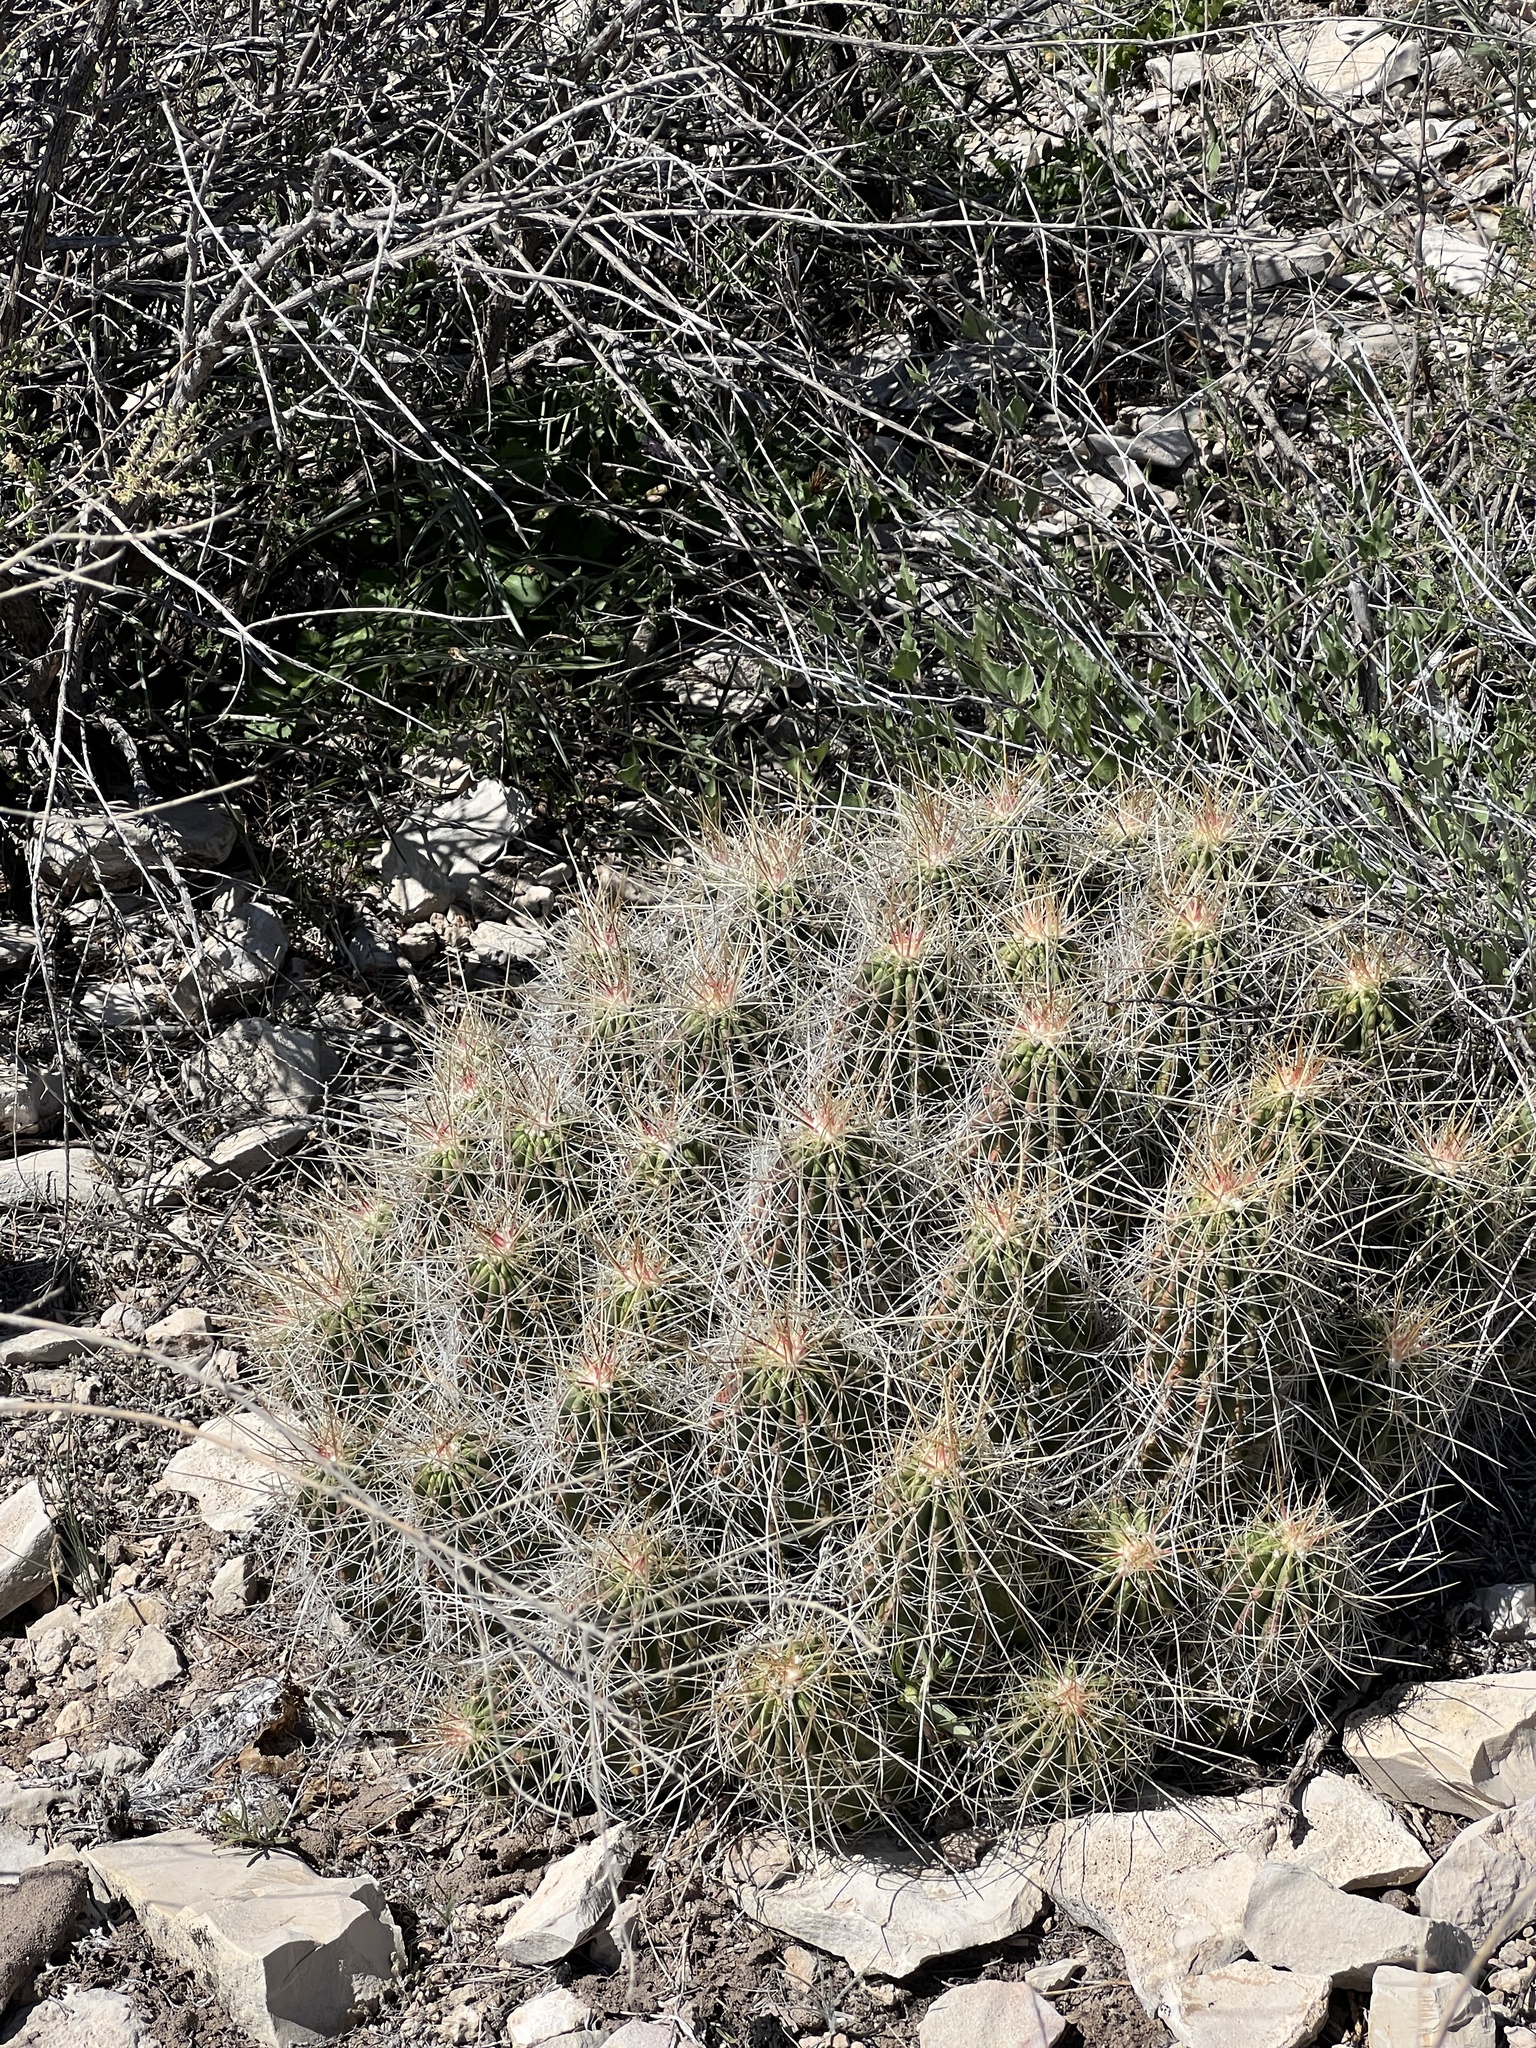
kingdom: Plantae
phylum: Tracheophyta
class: Magnoliopsida
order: Caryophyllales
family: Cactaceae
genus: Echinocereus
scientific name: Echinocereus stramineus
